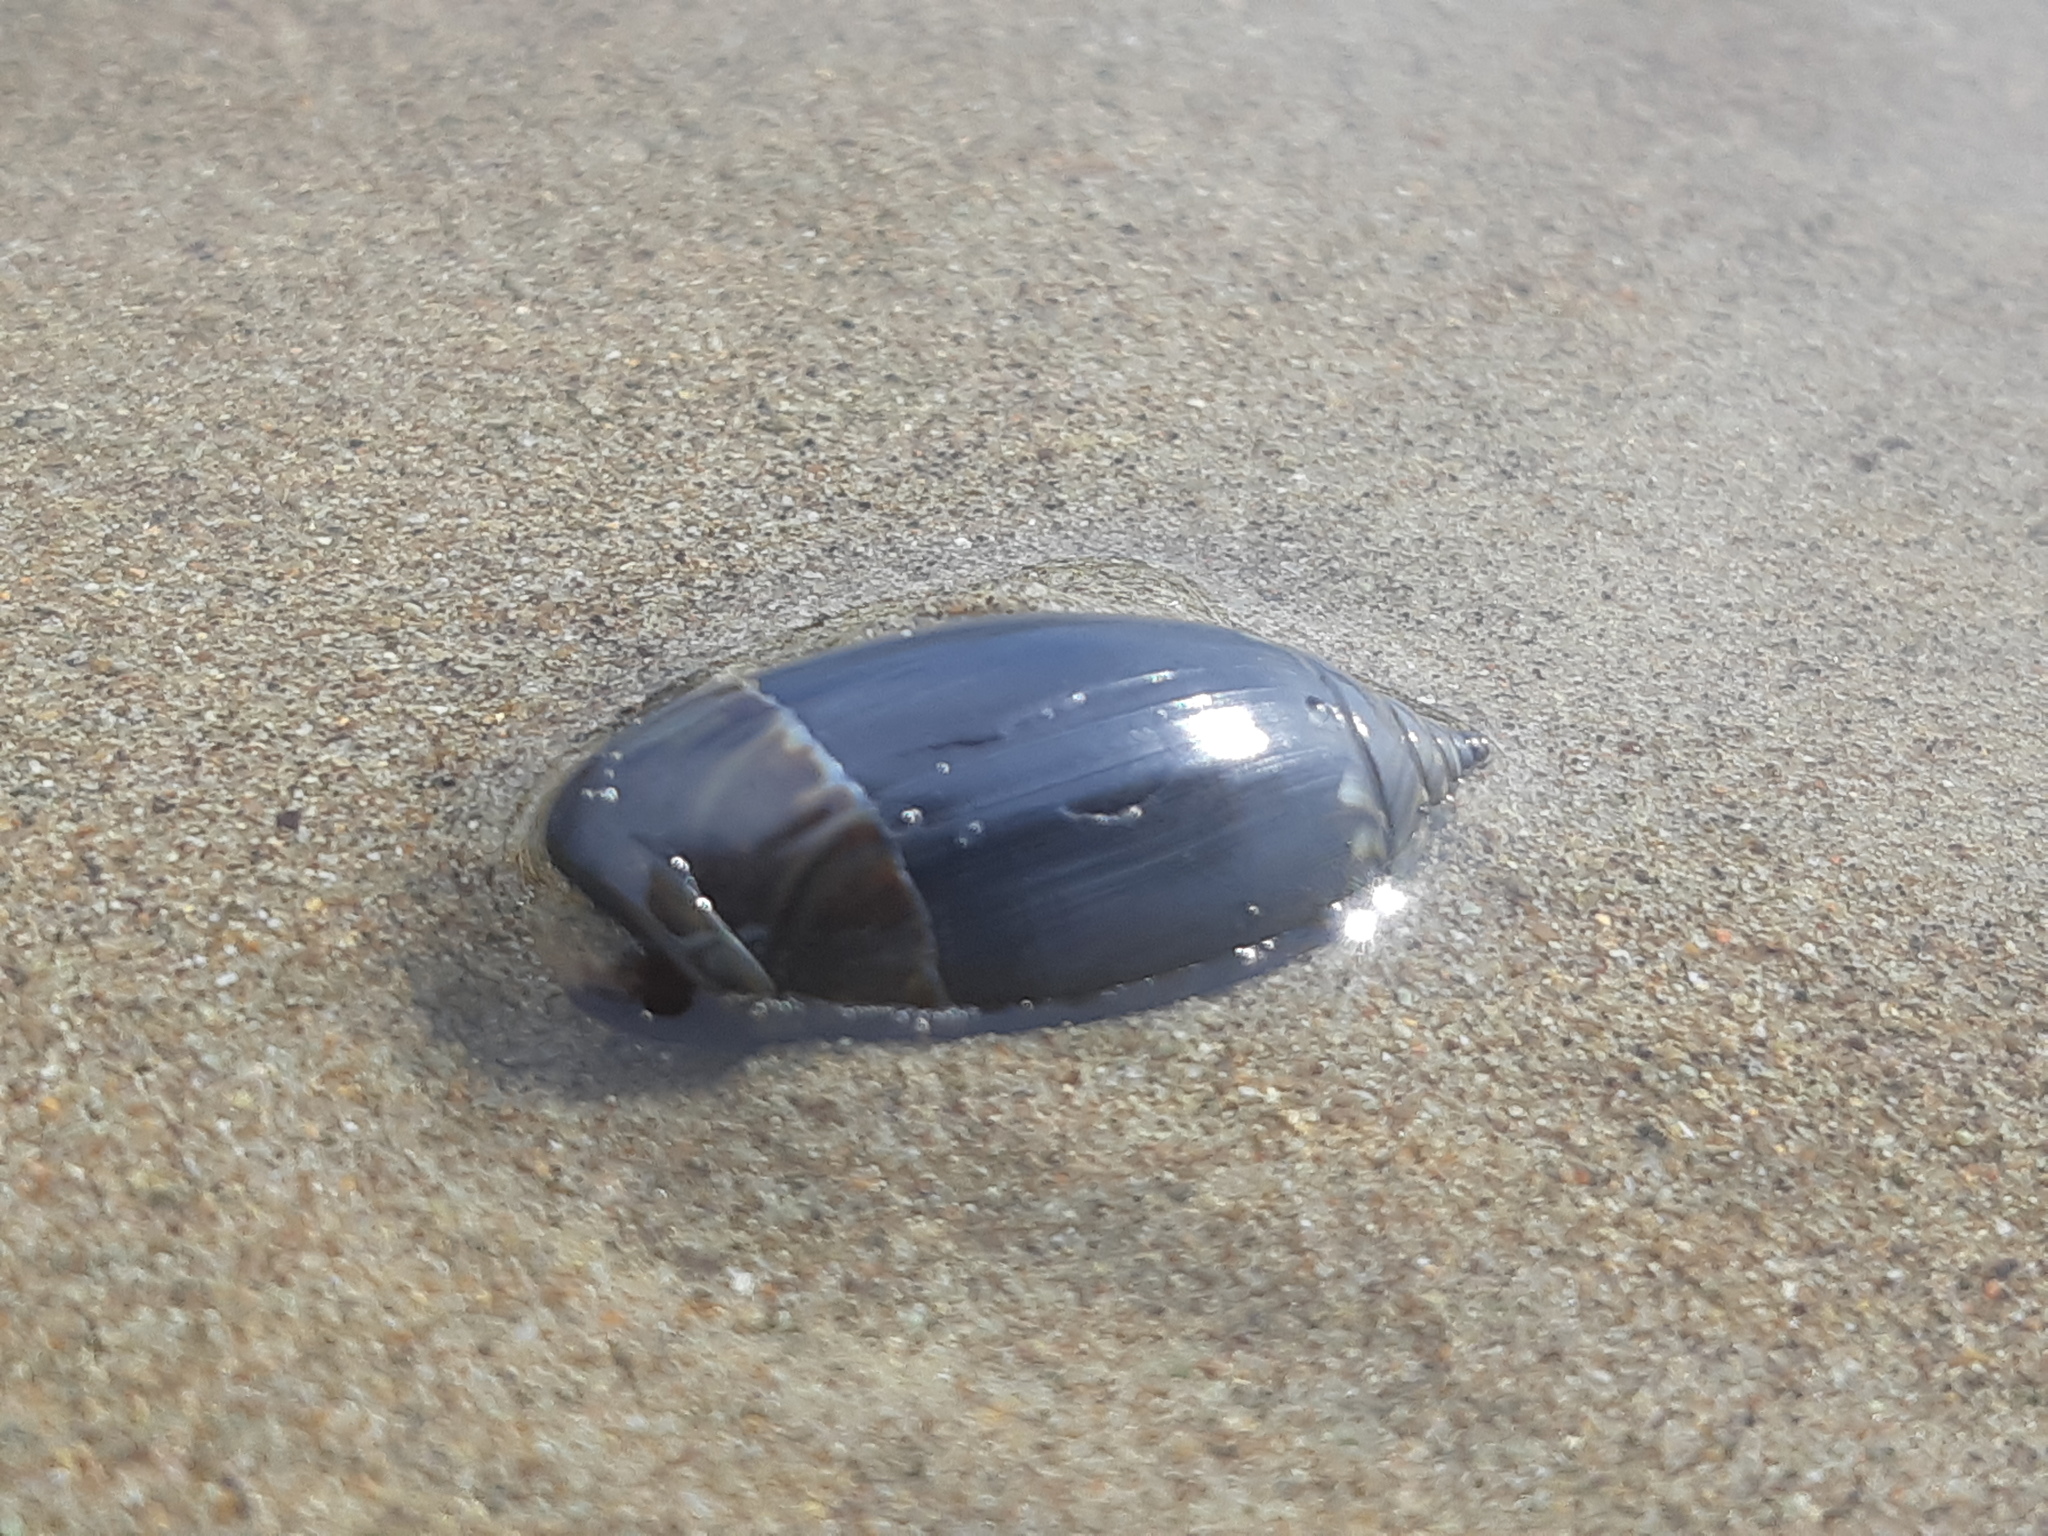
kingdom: Animalia
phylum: Mollusca
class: Gastropoda
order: Neogastropoda
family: Olividae
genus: Oliva
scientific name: Oliva undatella
